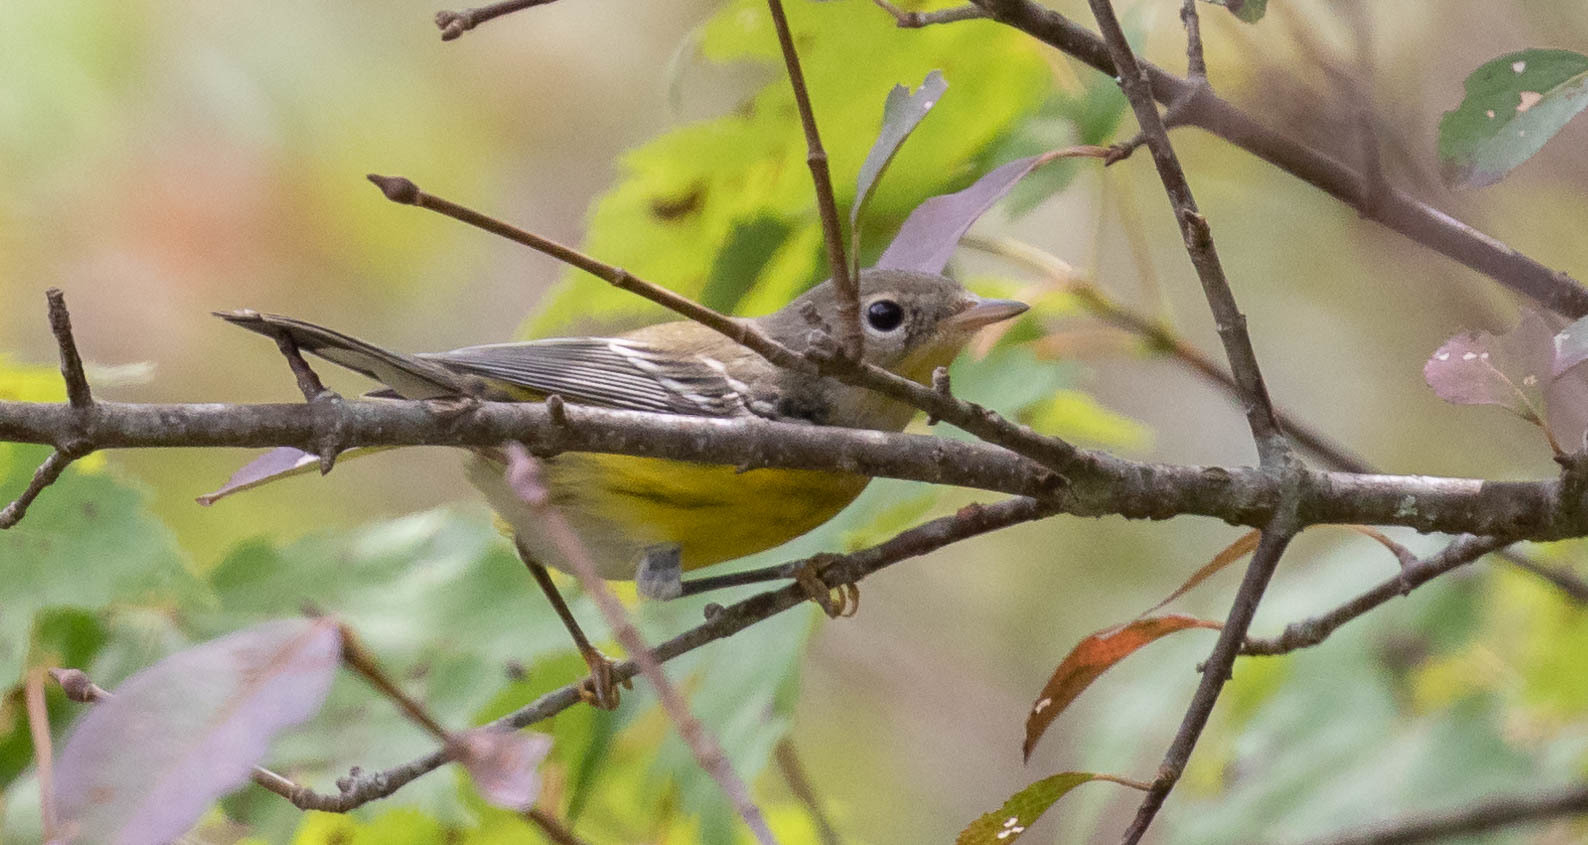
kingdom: Animalia
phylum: Chordata
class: Aves
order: Passeriformes
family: Parulidae
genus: Setophaga
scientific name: Setophaga magnolia
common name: Magnolia warbler
